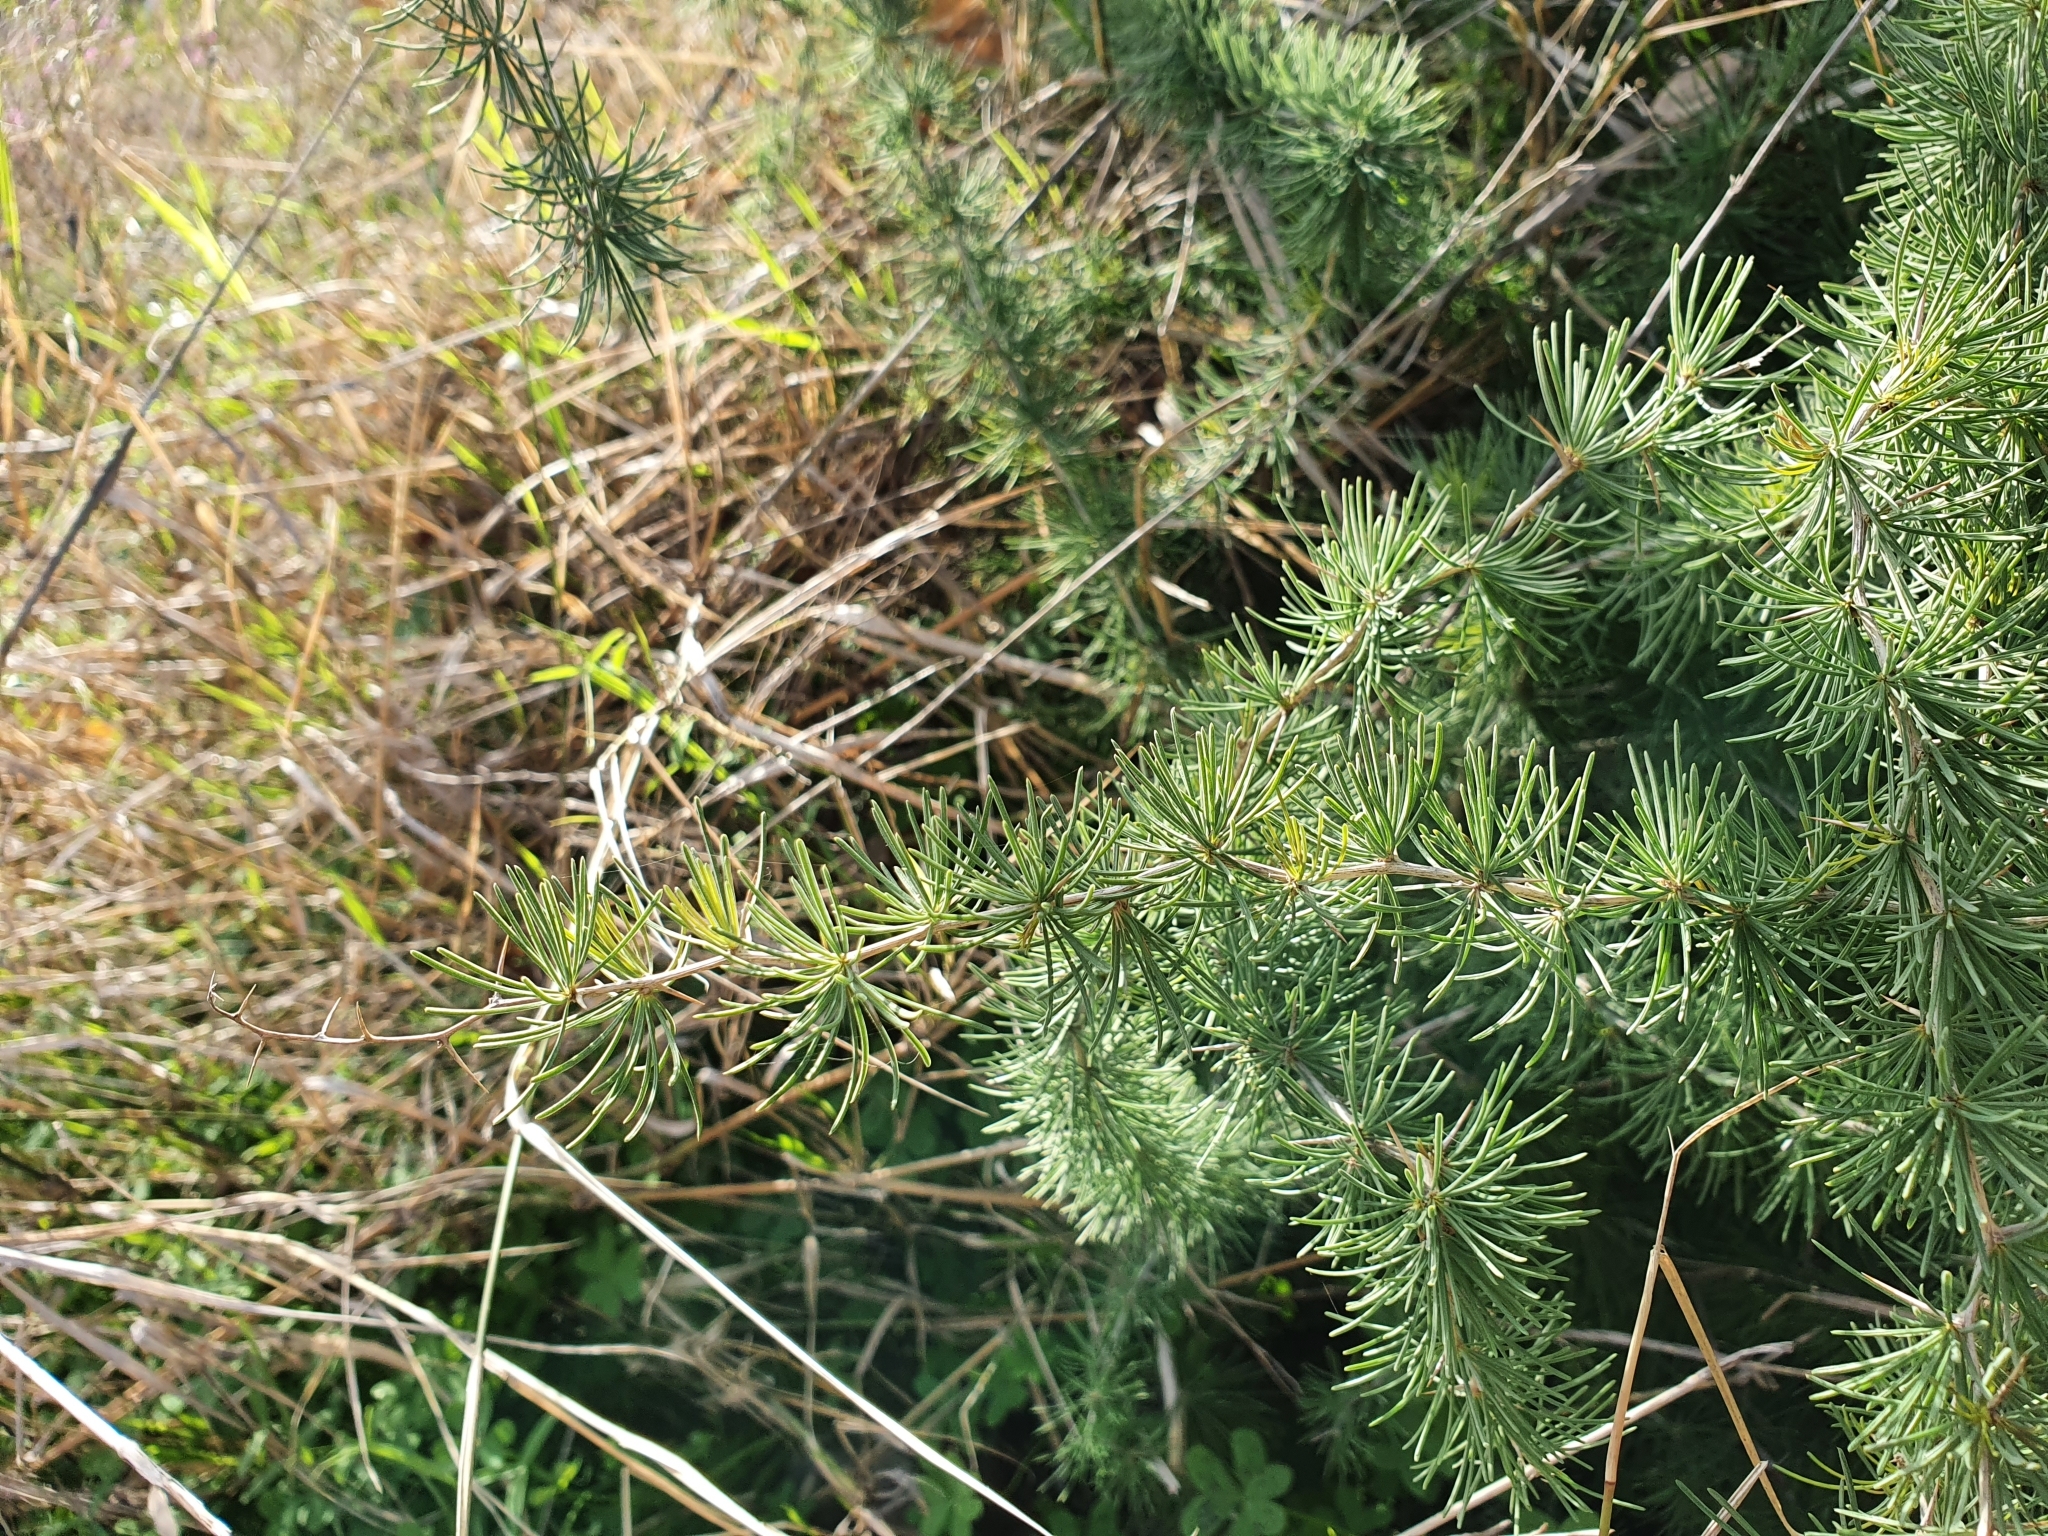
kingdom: Plantae
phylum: Tracheophyta
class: Liliopsida
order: Asparagales
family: Asparagaceae
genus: Asparagus
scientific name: Asparagus albus
